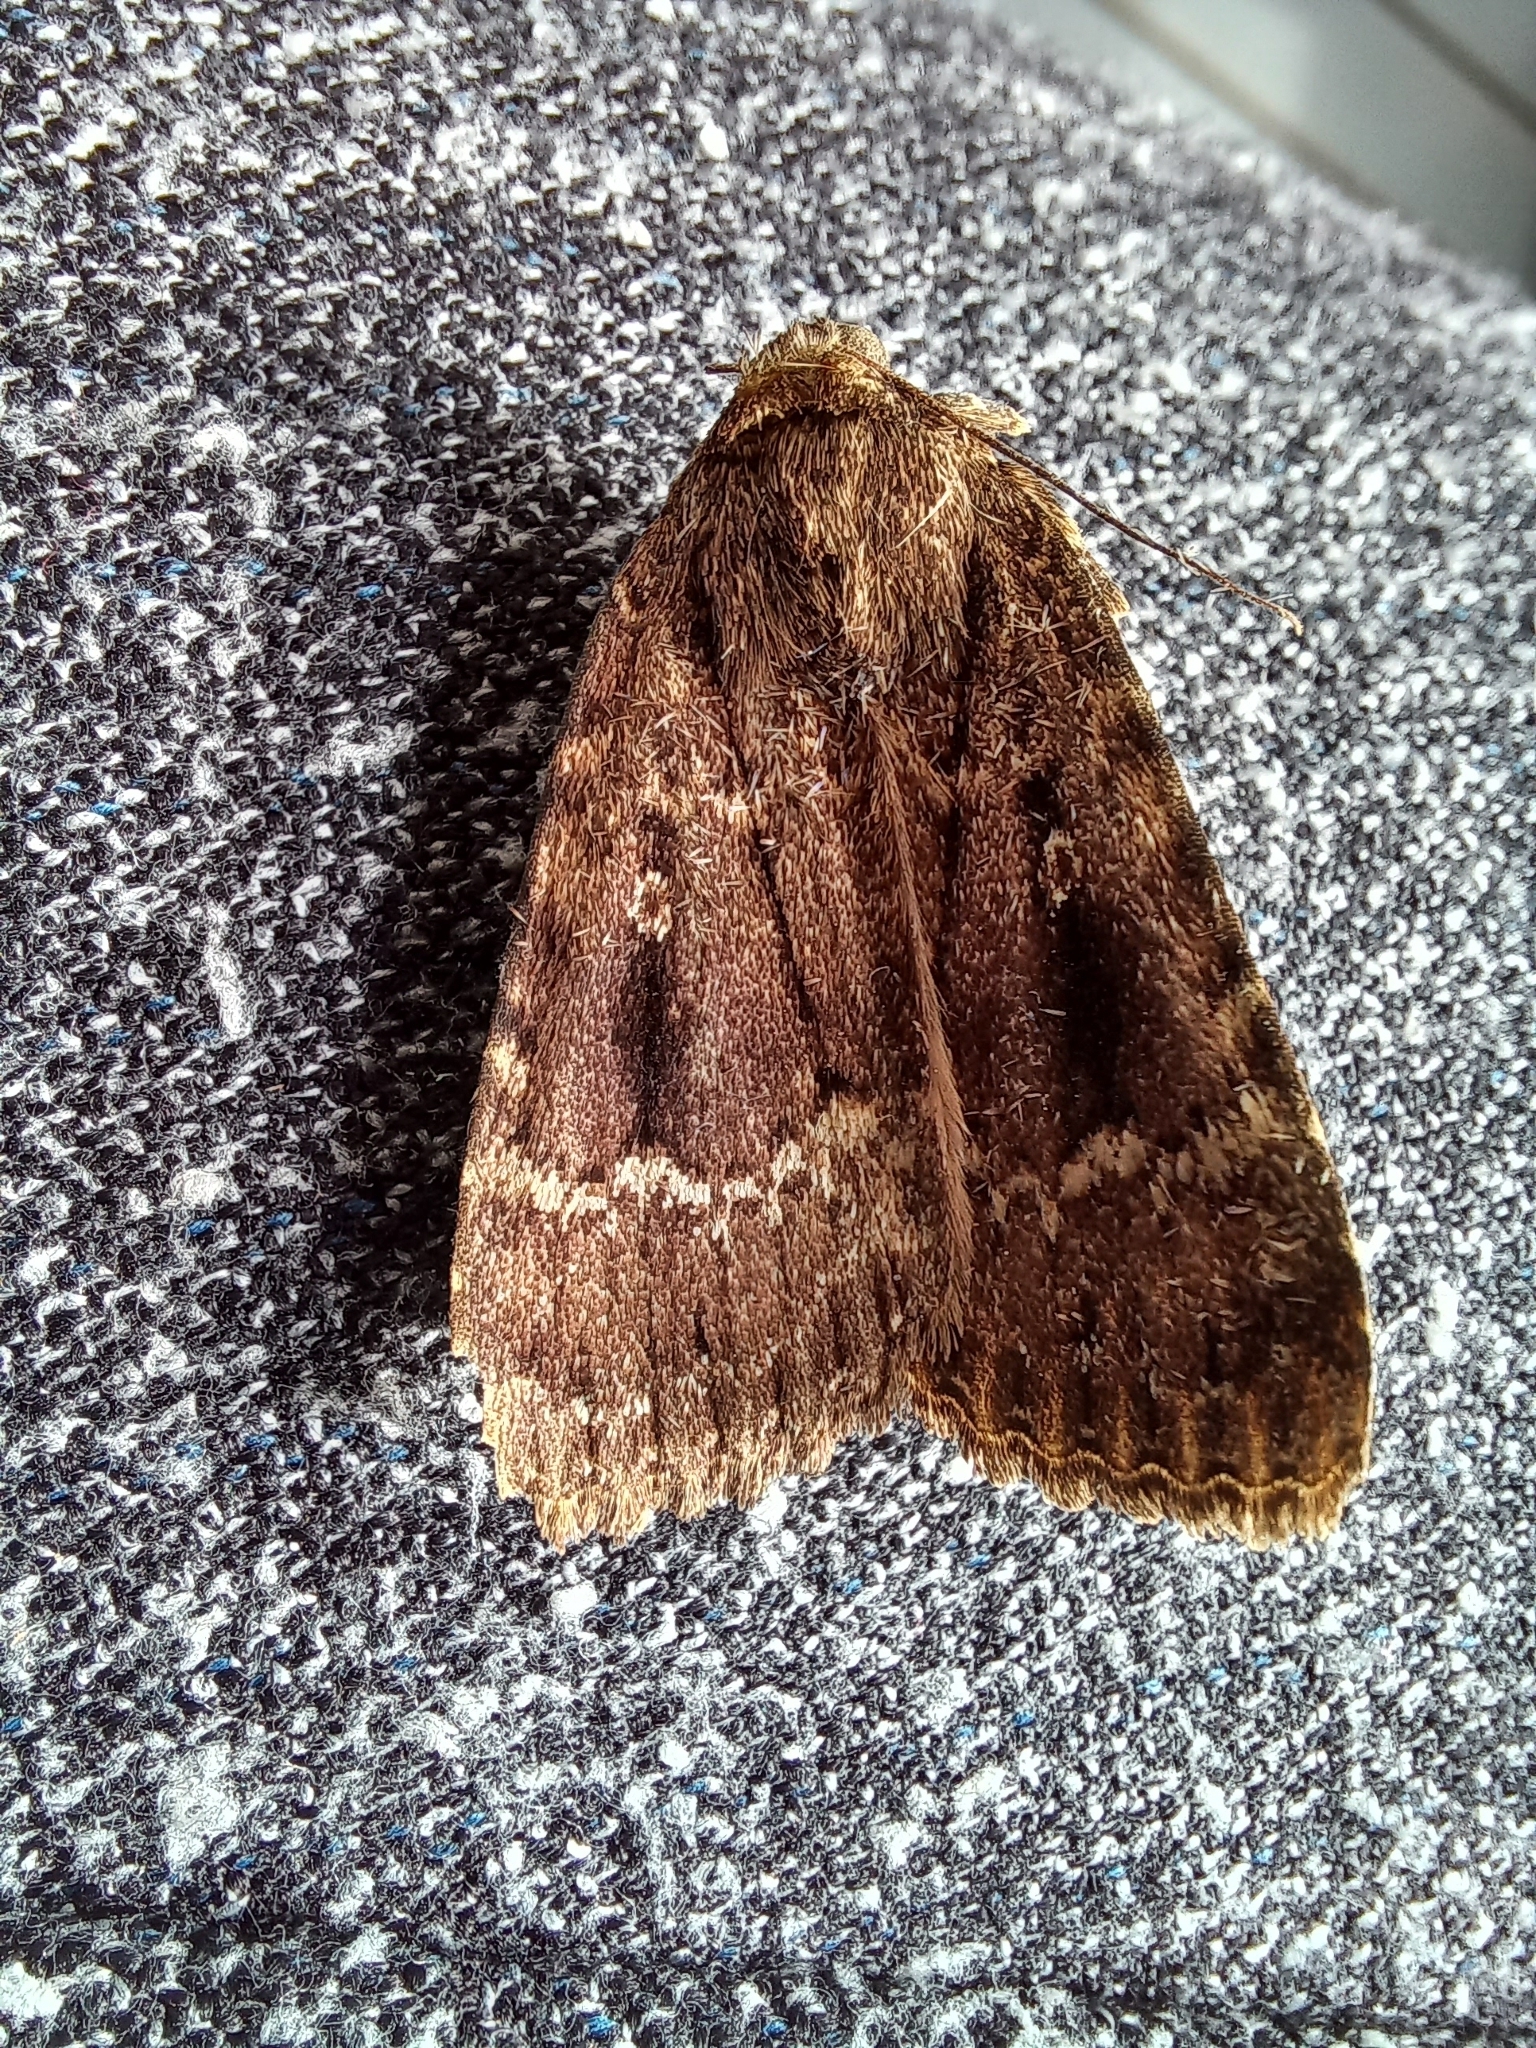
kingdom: Animalia
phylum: Arthropoda
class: Insecta
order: Lepidoptera
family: Noctuidae
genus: Amphipyra
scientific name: Amphipyra pyramidea
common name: Copper underwing
